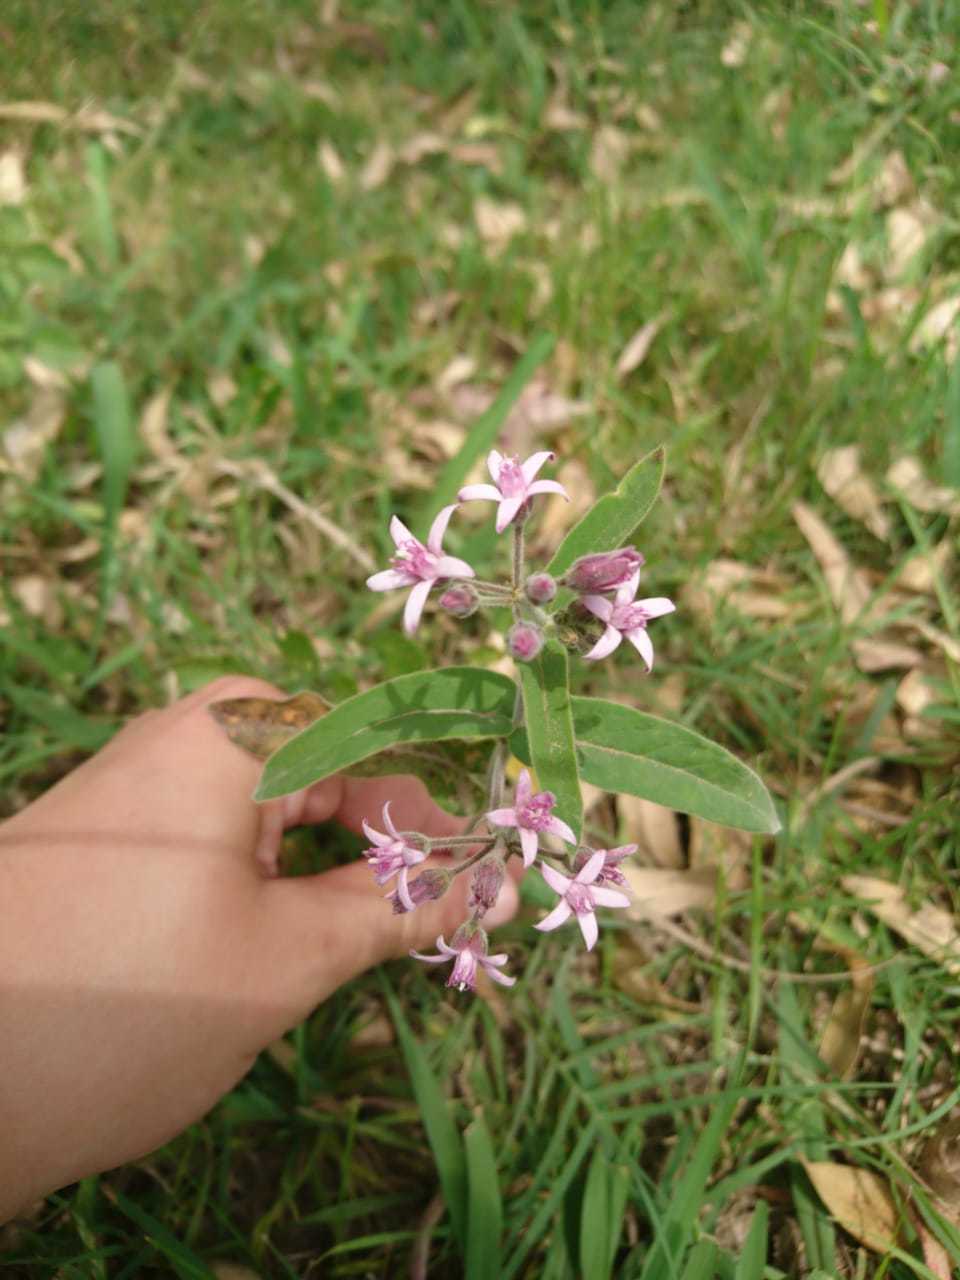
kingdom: Plantae
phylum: Tracheophyta
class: Magnoliopsida
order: Gentianales
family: Apocynaceae
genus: Oxypetalum
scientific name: Oxypetalum solanoides
